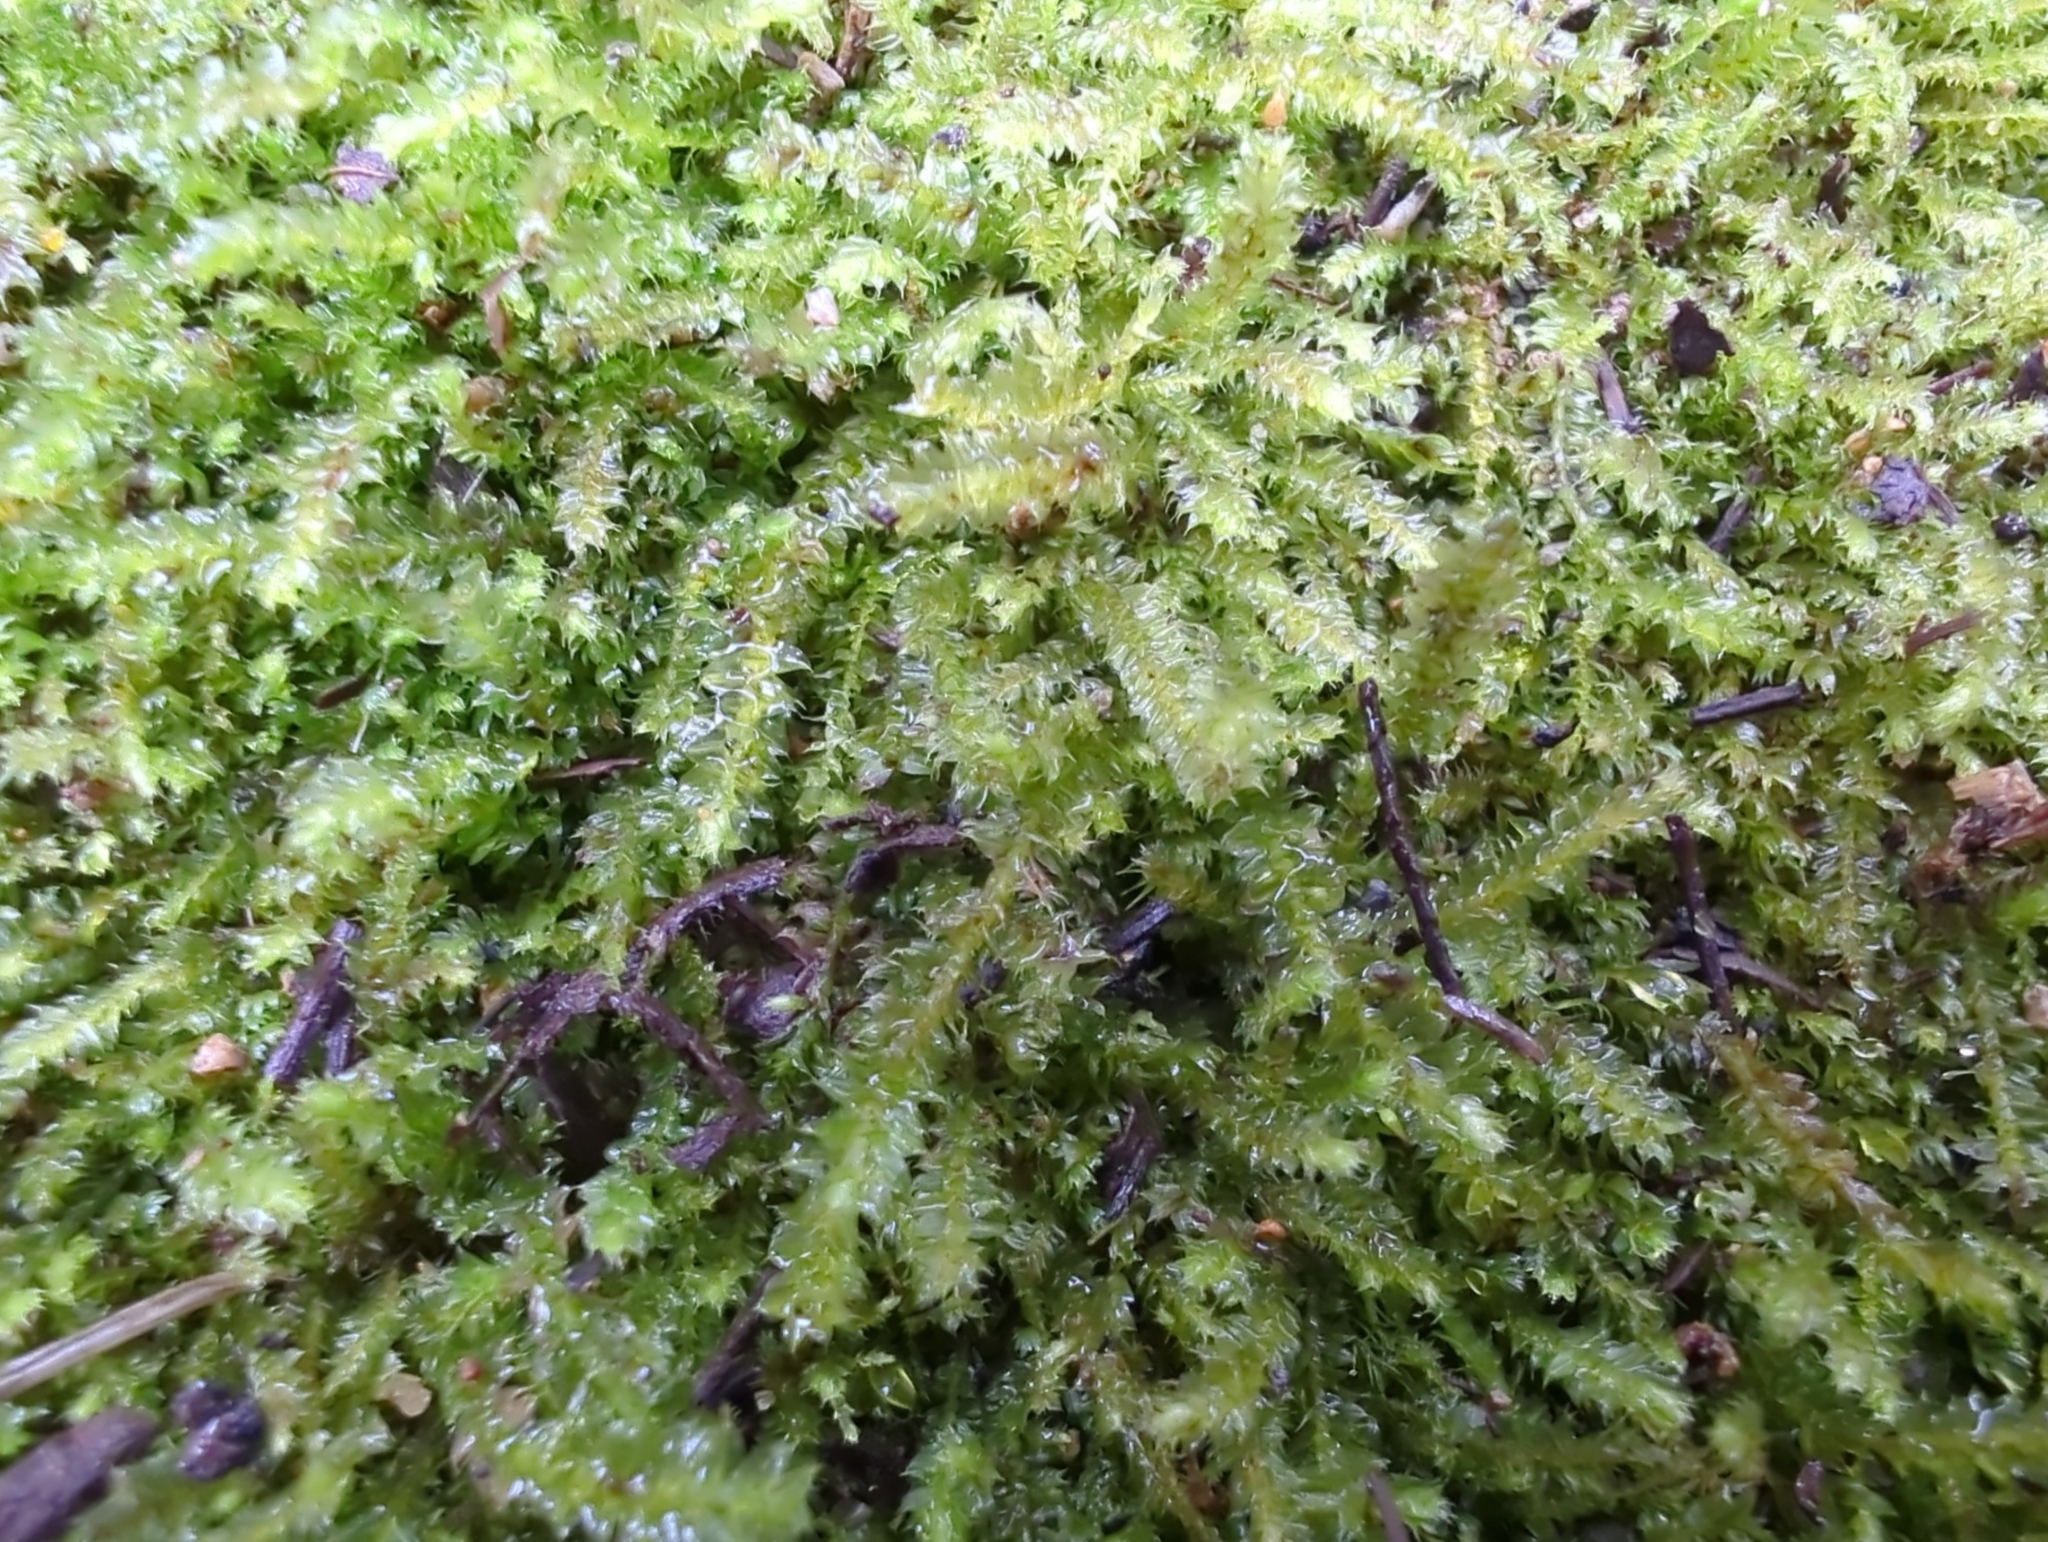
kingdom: Plantae
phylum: Bryophyta
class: Bryopsida
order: Hypnodendrales
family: Racopilaceae
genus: Racopilum
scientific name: Racopilum cuspidigerum
